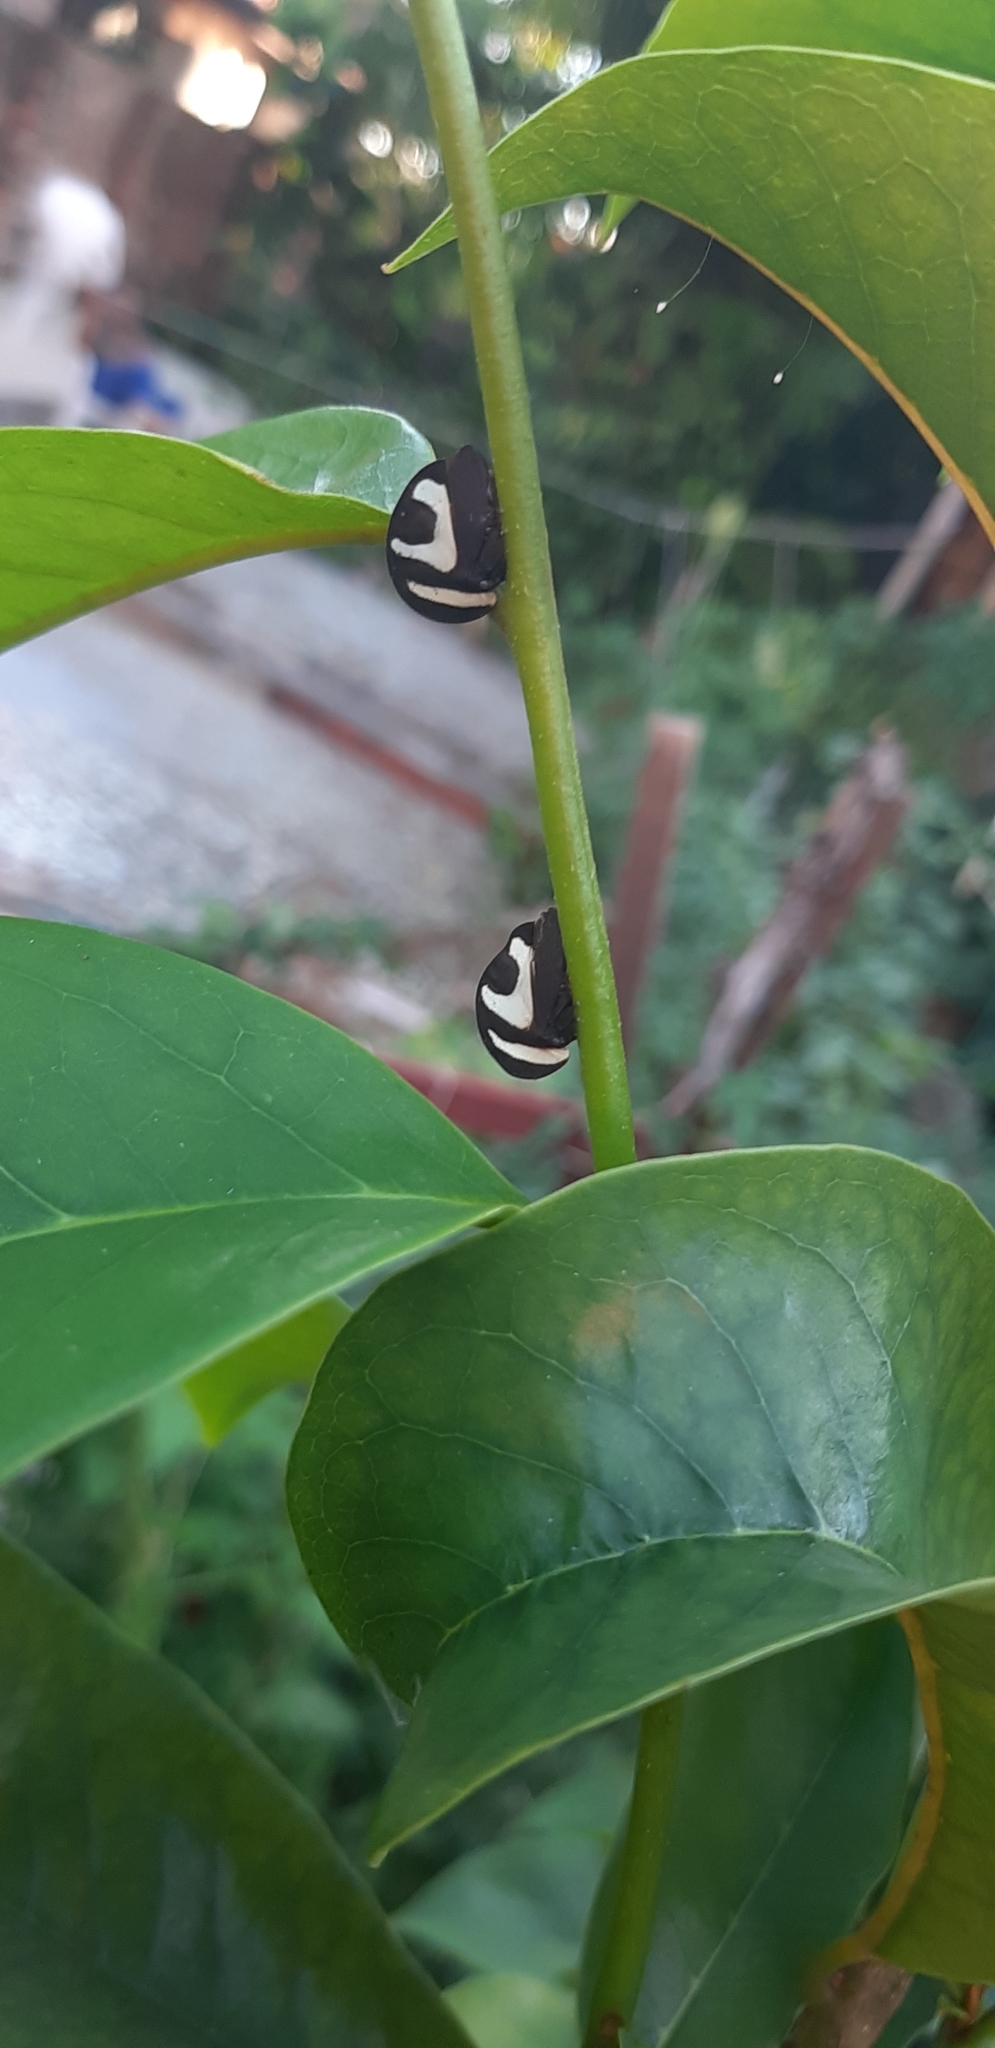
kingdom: Animalia
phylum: Arthropoda
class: Insecta
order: Hemiptera
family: Membracidae
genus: Membracis
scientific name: Membracis foliatafasciata
